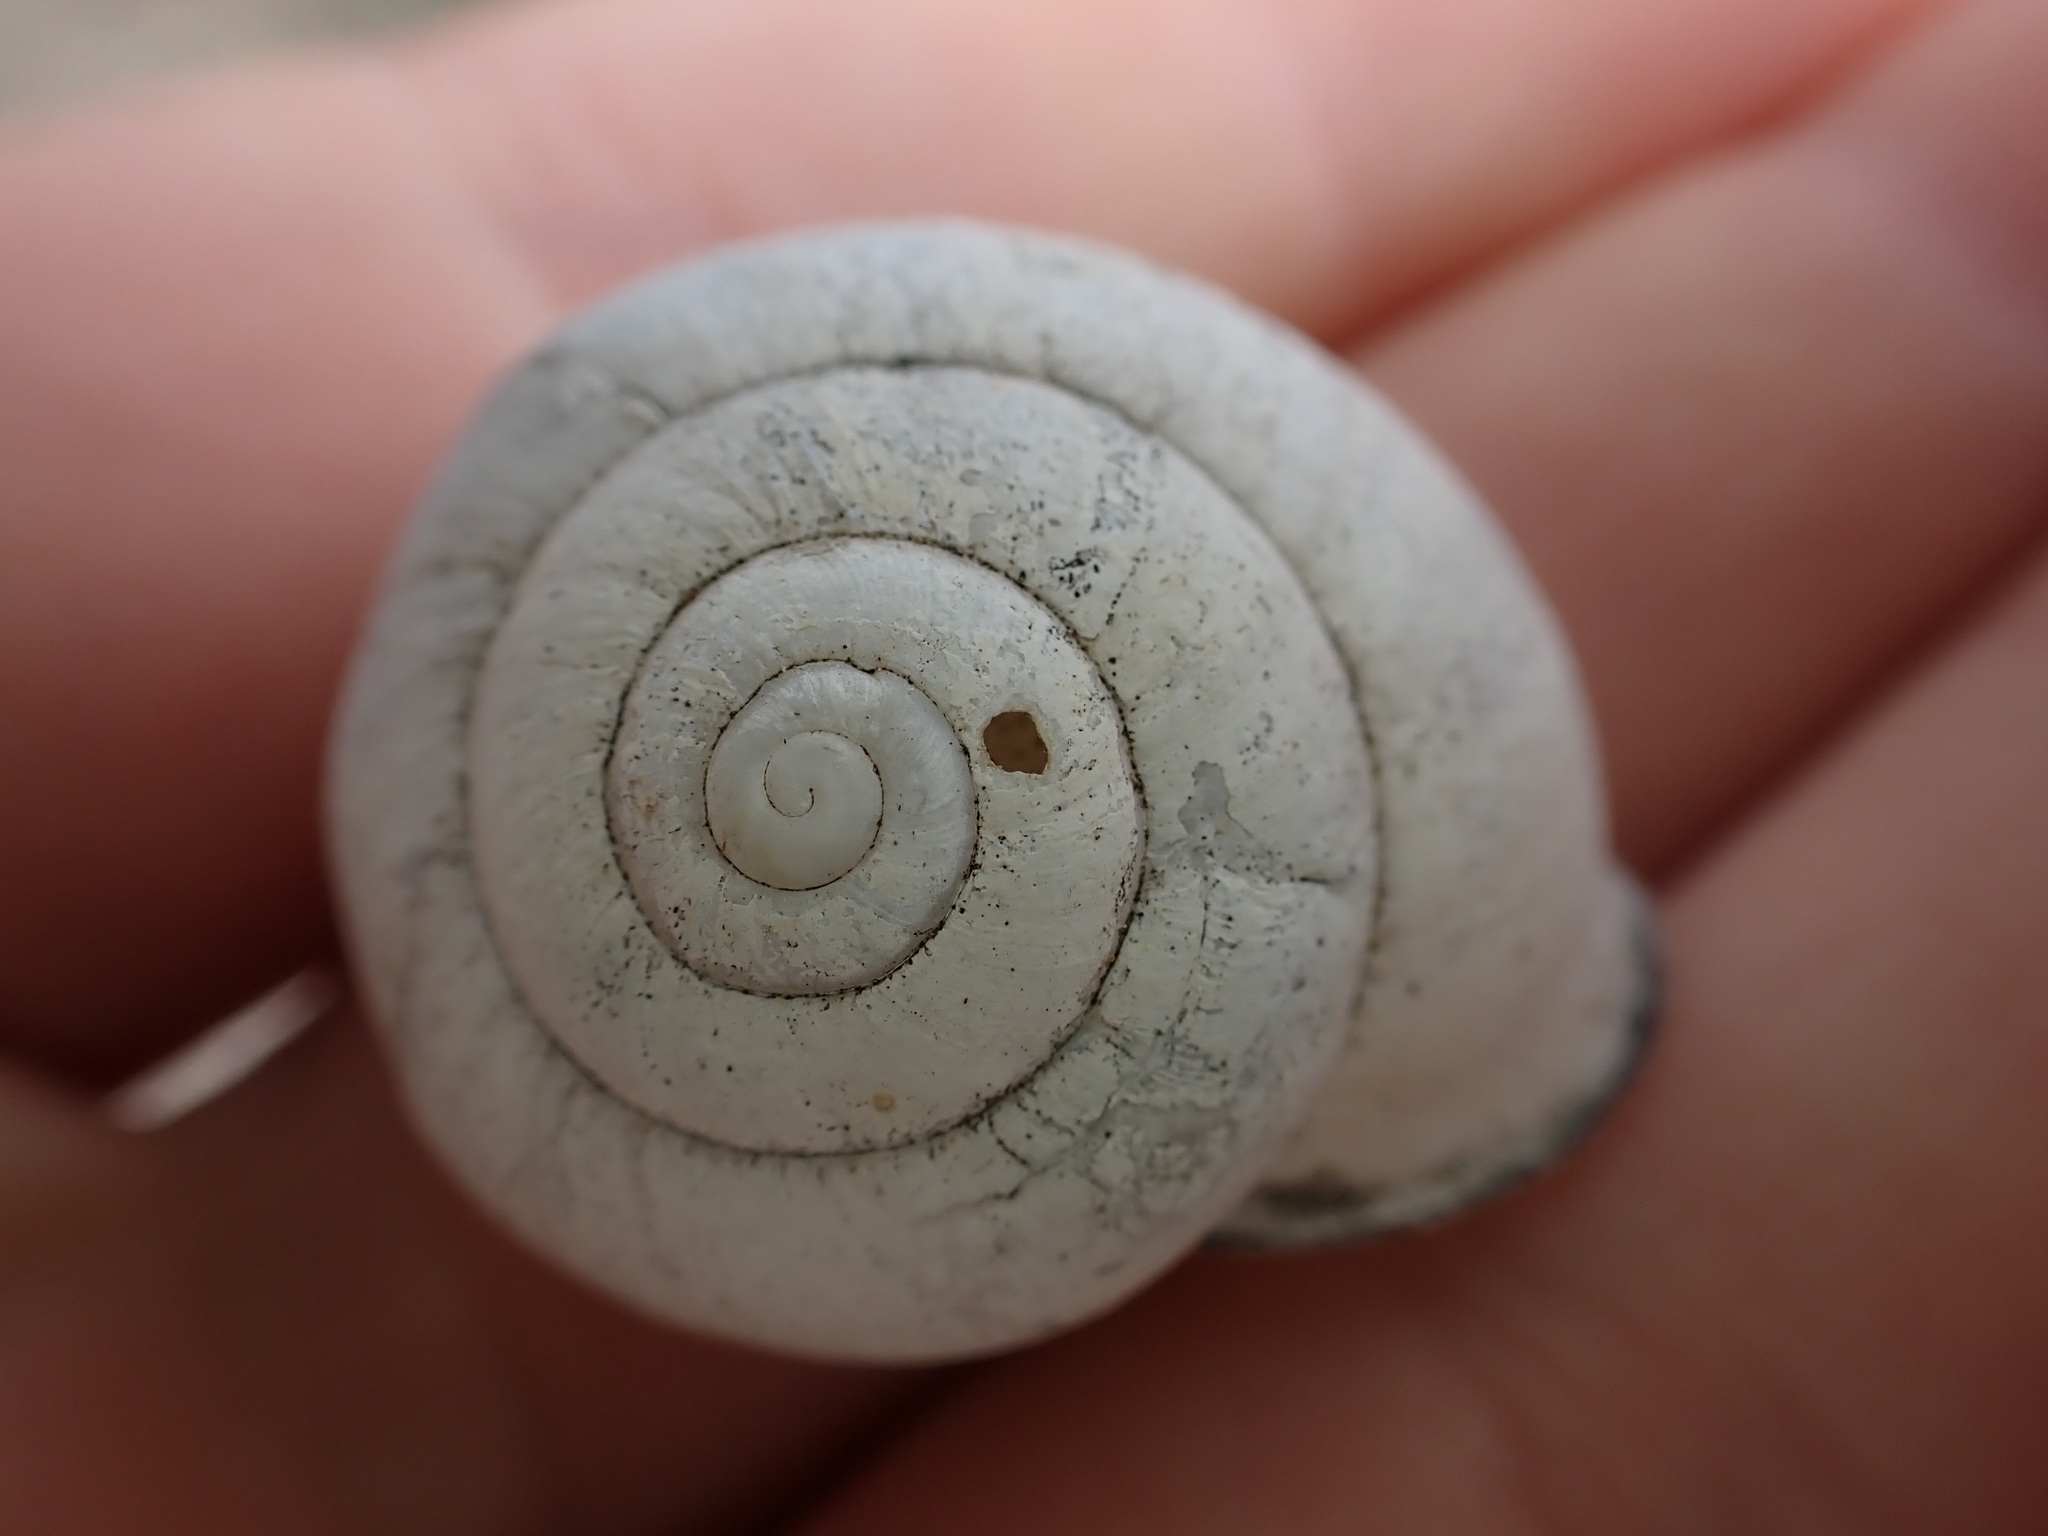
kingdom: Animalia
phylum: Mollusca
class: Gastropoda
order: Stylommatophora
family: Helicidae
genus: Eobania
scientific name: Eobania vermiculata
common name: Chocolateband snail
